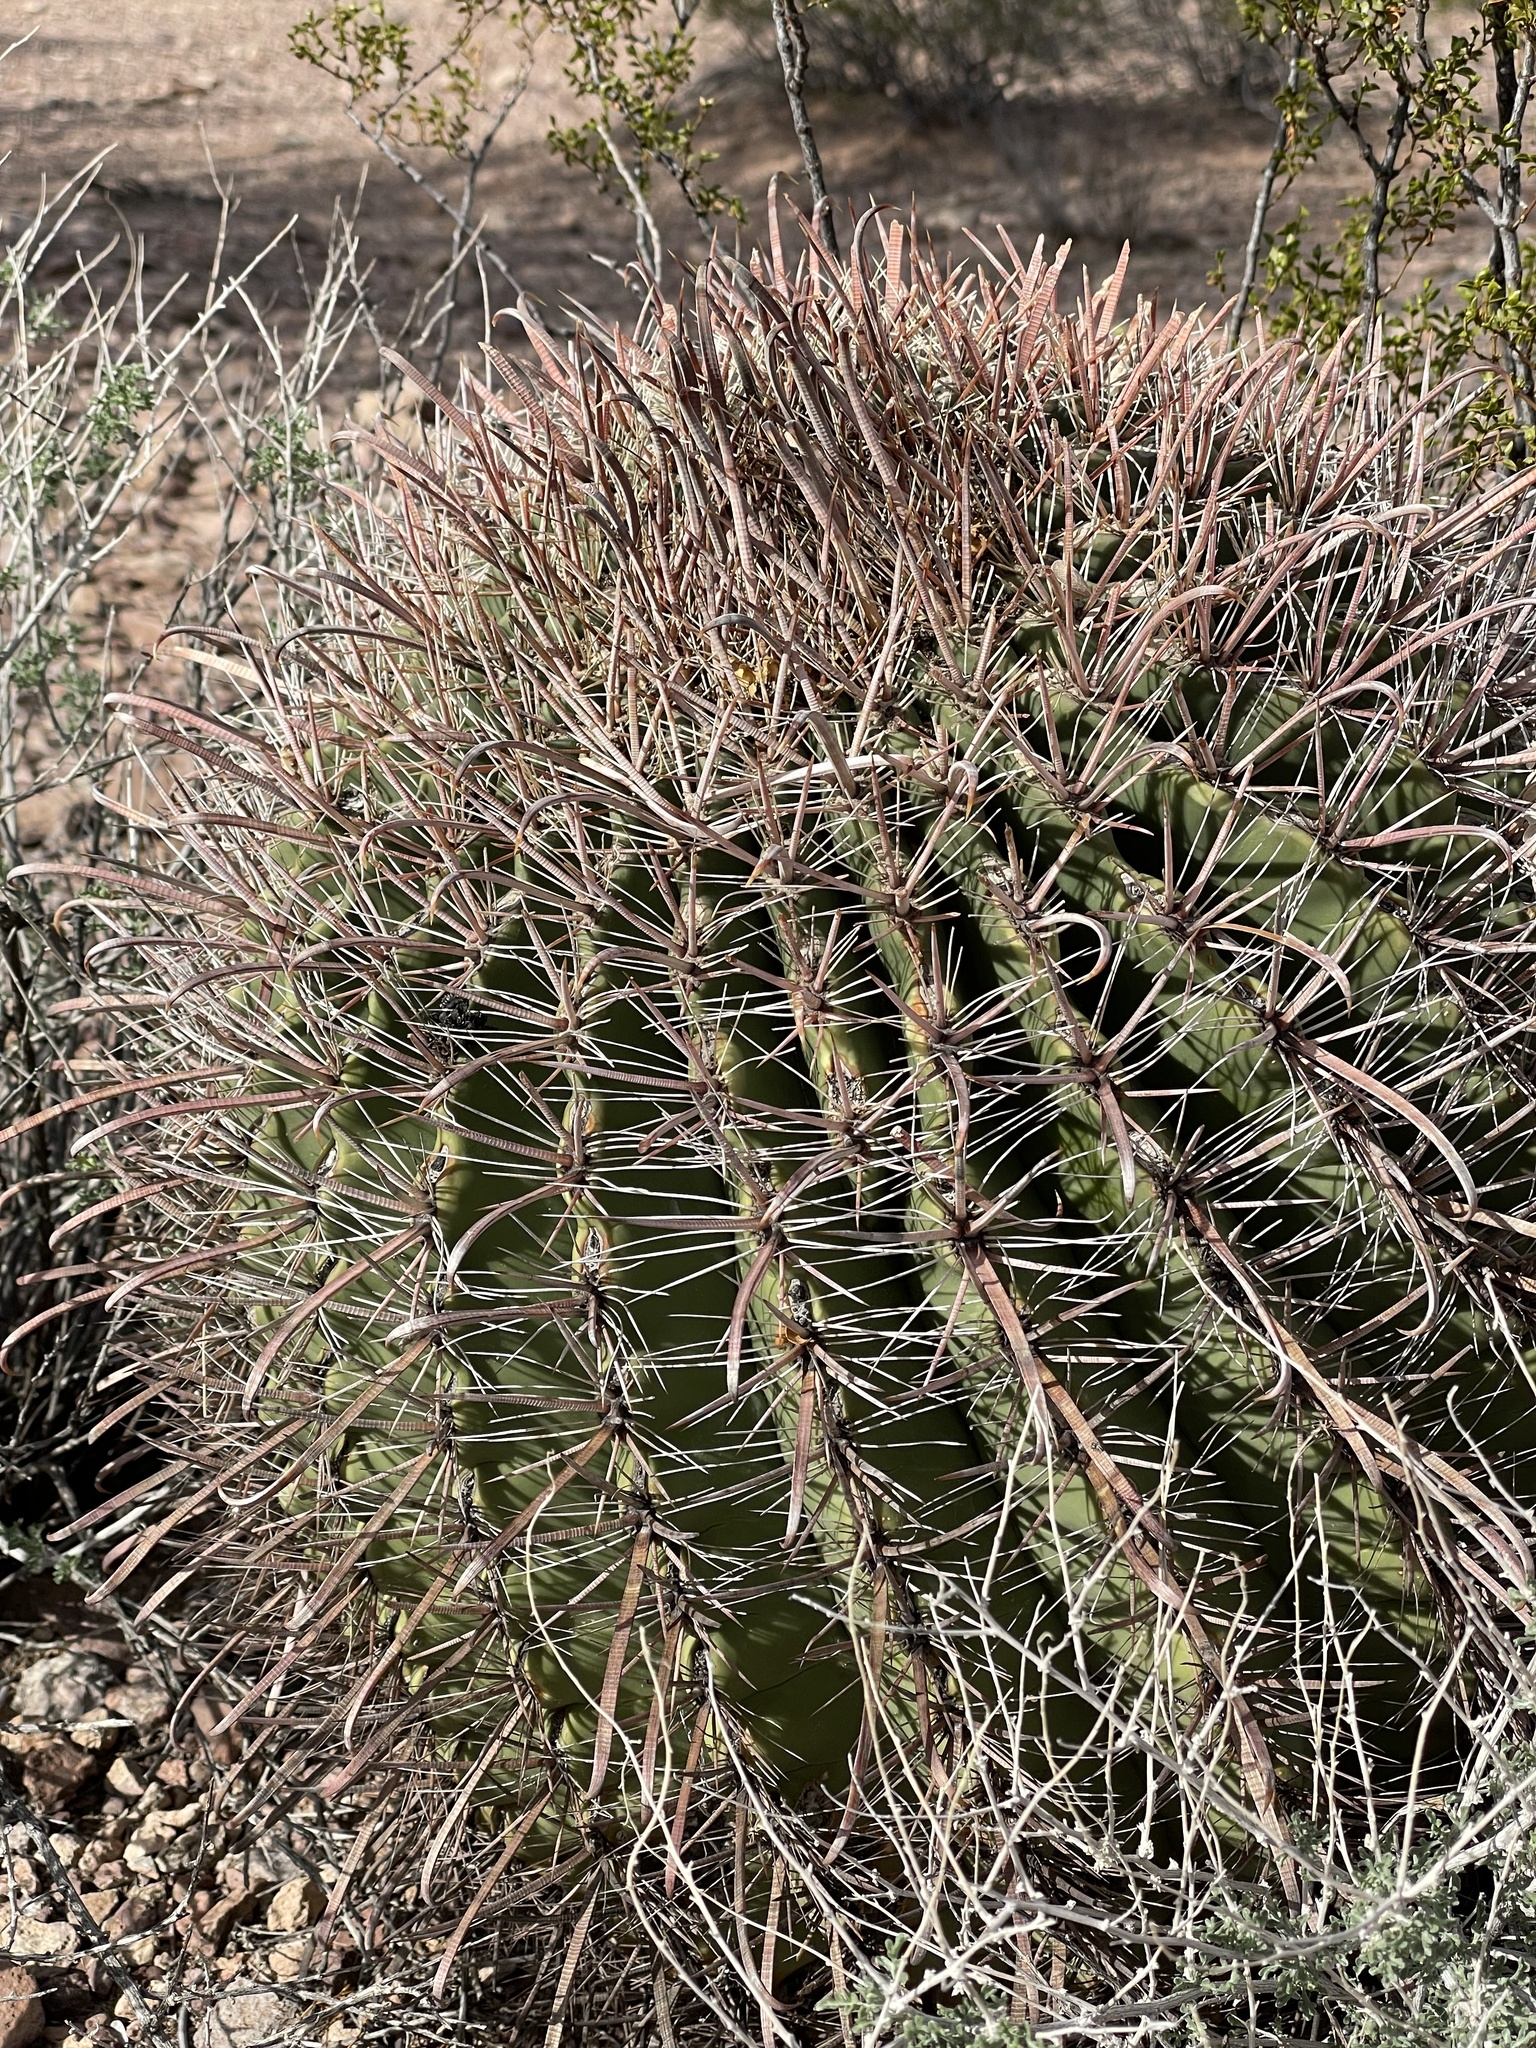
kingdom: Plantae
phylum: Tracheophyta
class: Magnoliopsida
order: Caryophyllales
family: Cactaceae
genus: Ferocactus
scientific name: Ferocactus wislizeni
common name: Candy barrel cactus
